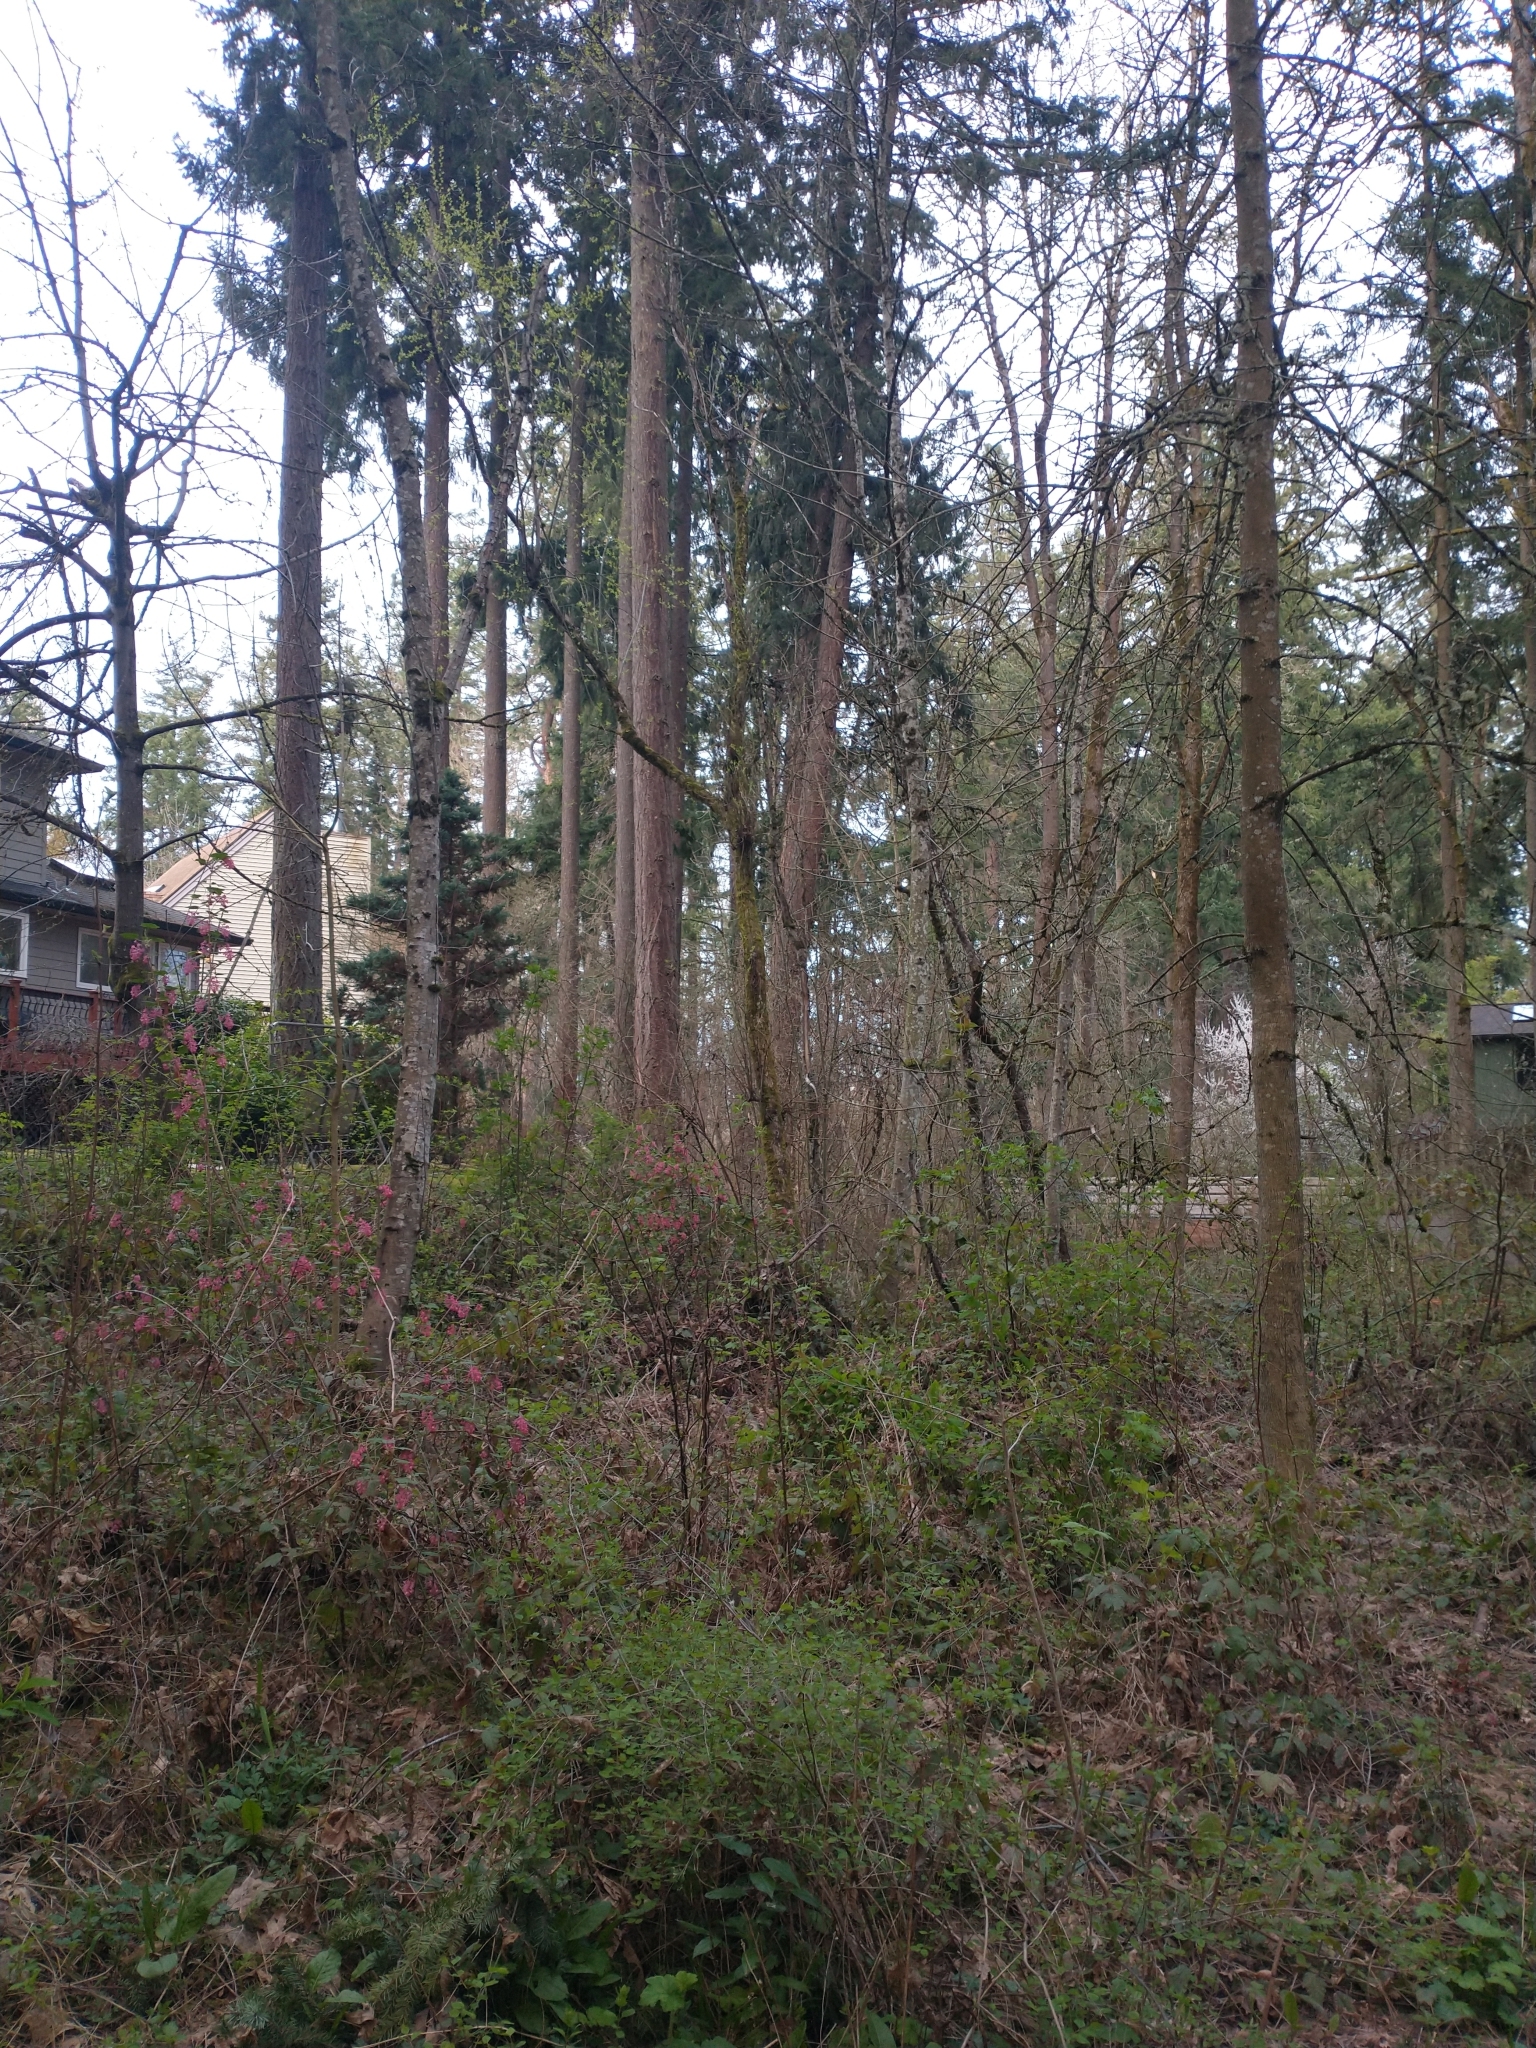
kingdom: Plantae
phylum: Tracheophyta
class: Pinopsida
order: Pinales
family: Pinaceae
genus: Pseudotsuga
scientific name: Pseudotsuga menziesii
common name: Douglas fir
